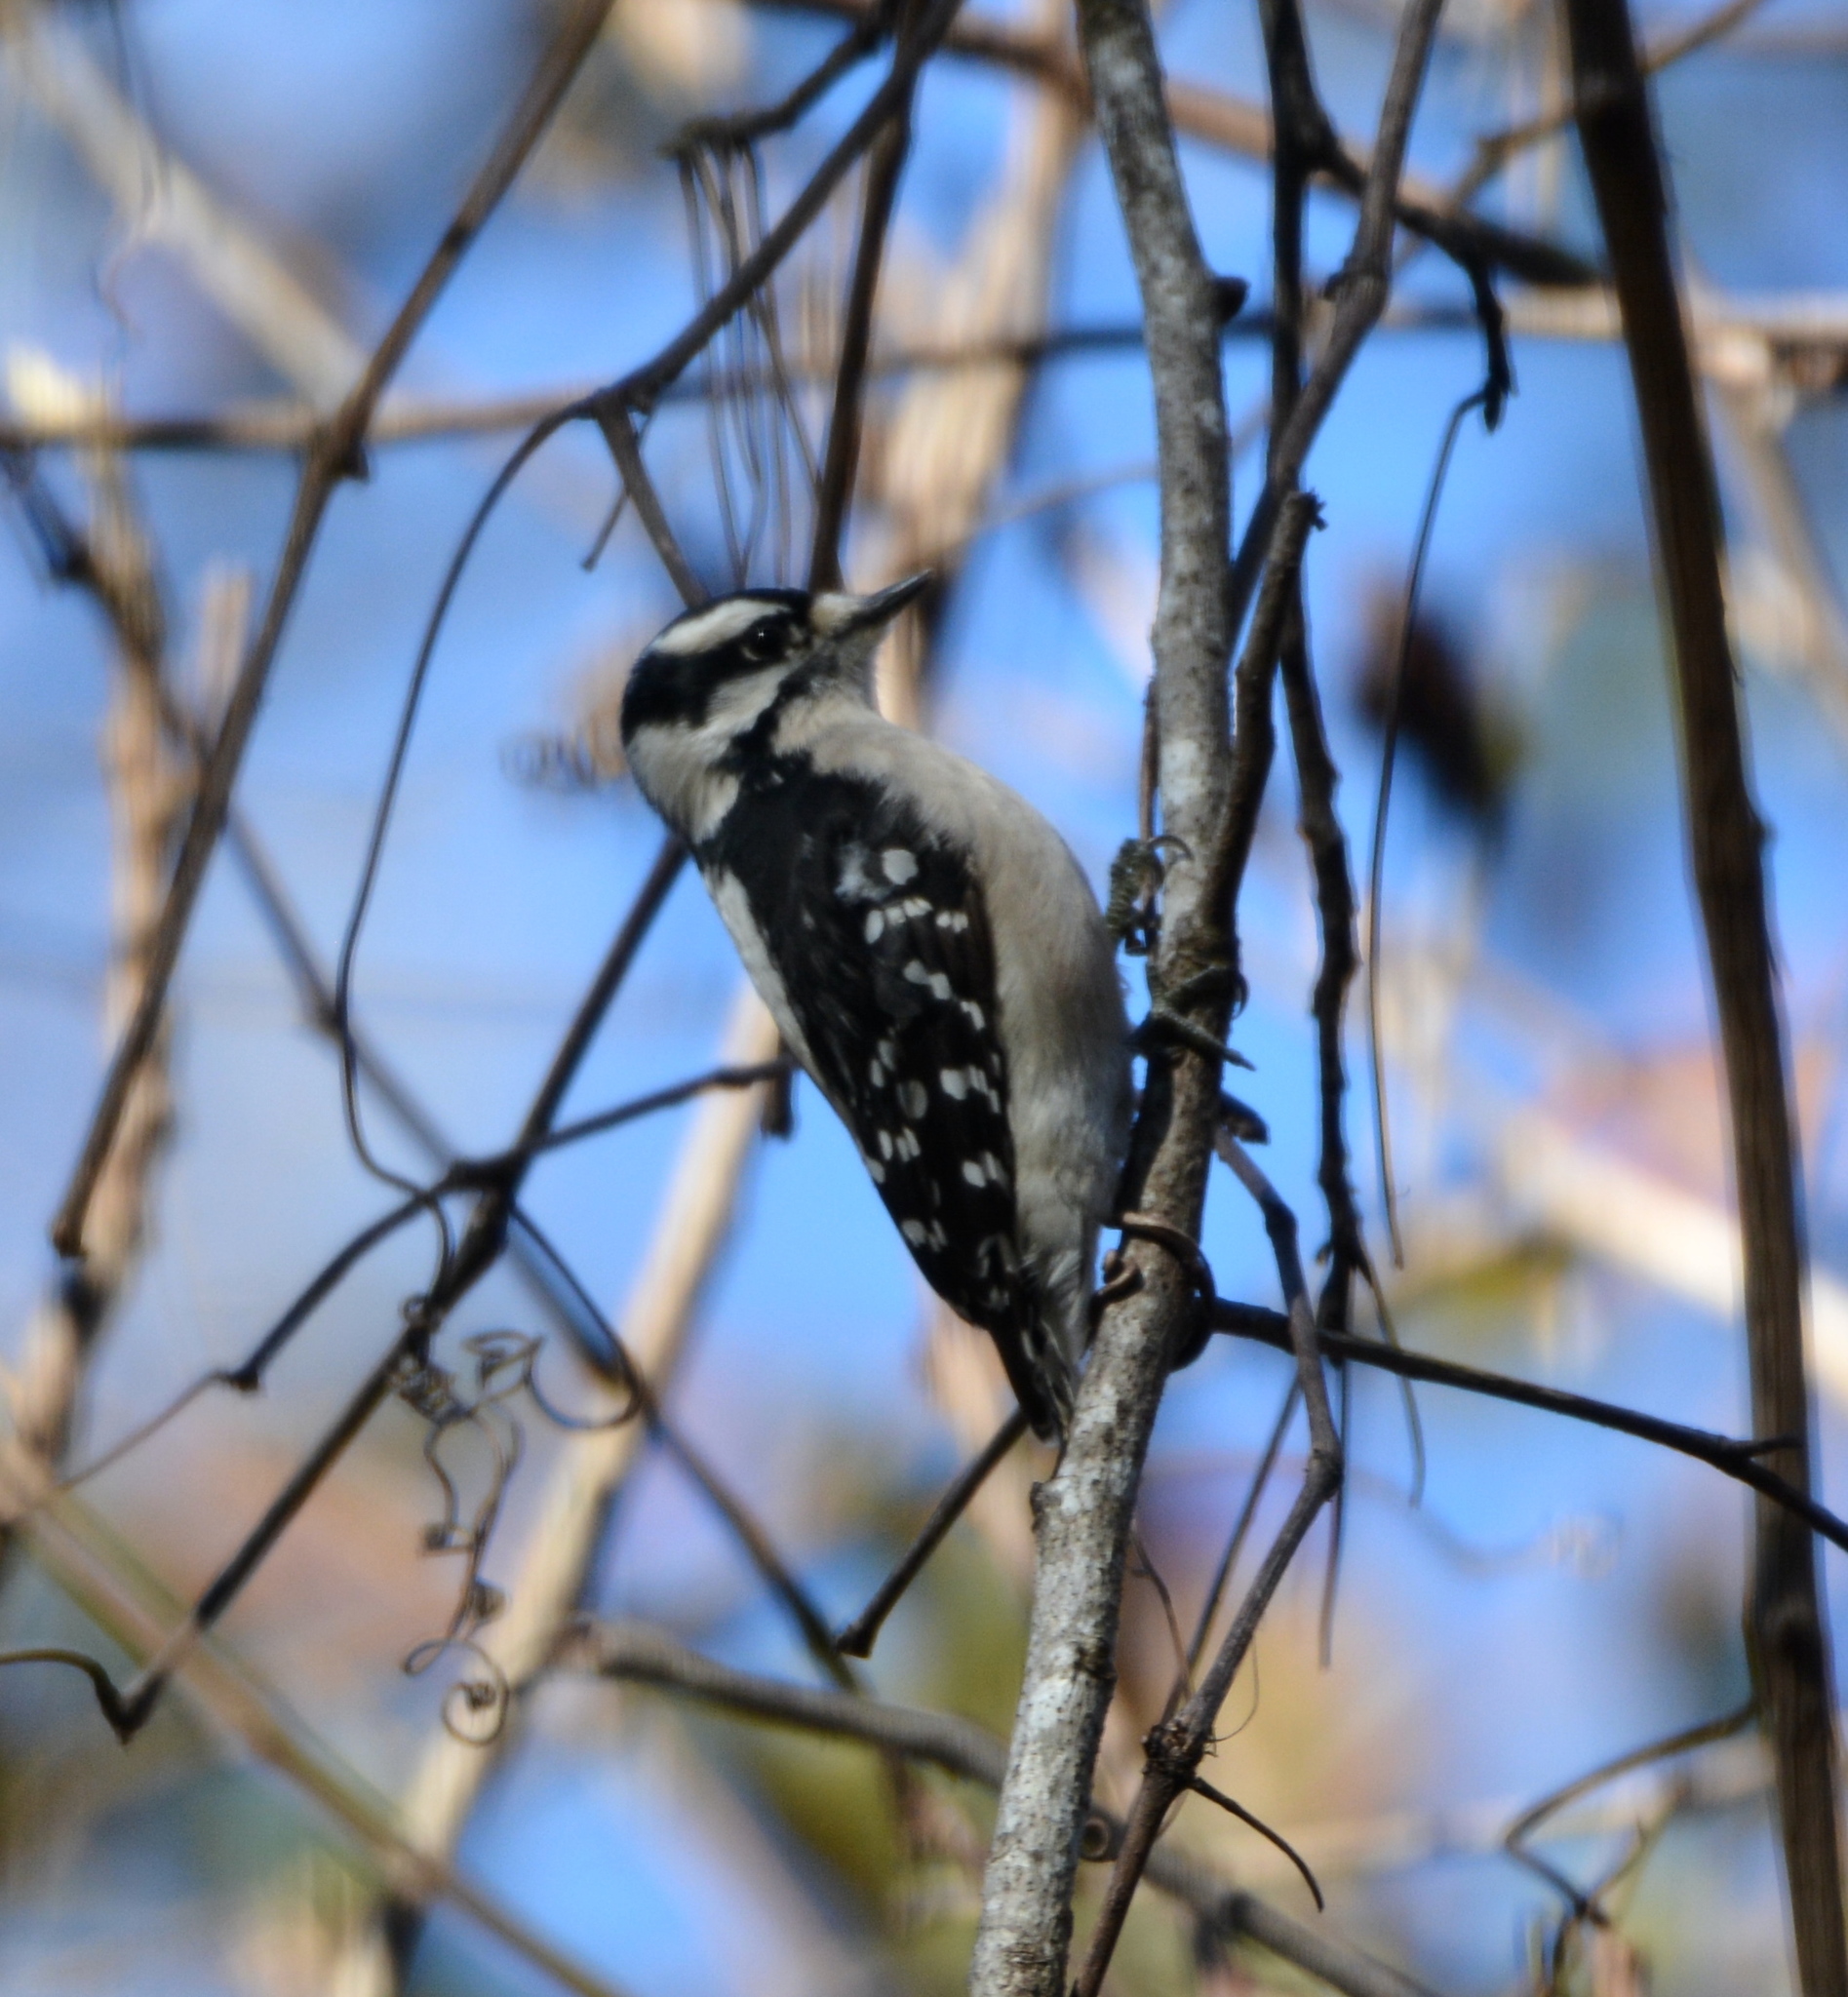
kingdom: Animalia
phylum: Chordata
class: Aves
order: Piciformes
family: Picidae
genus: Dryobates
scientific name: Dryobates pubescens
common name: Downy woodpecker
